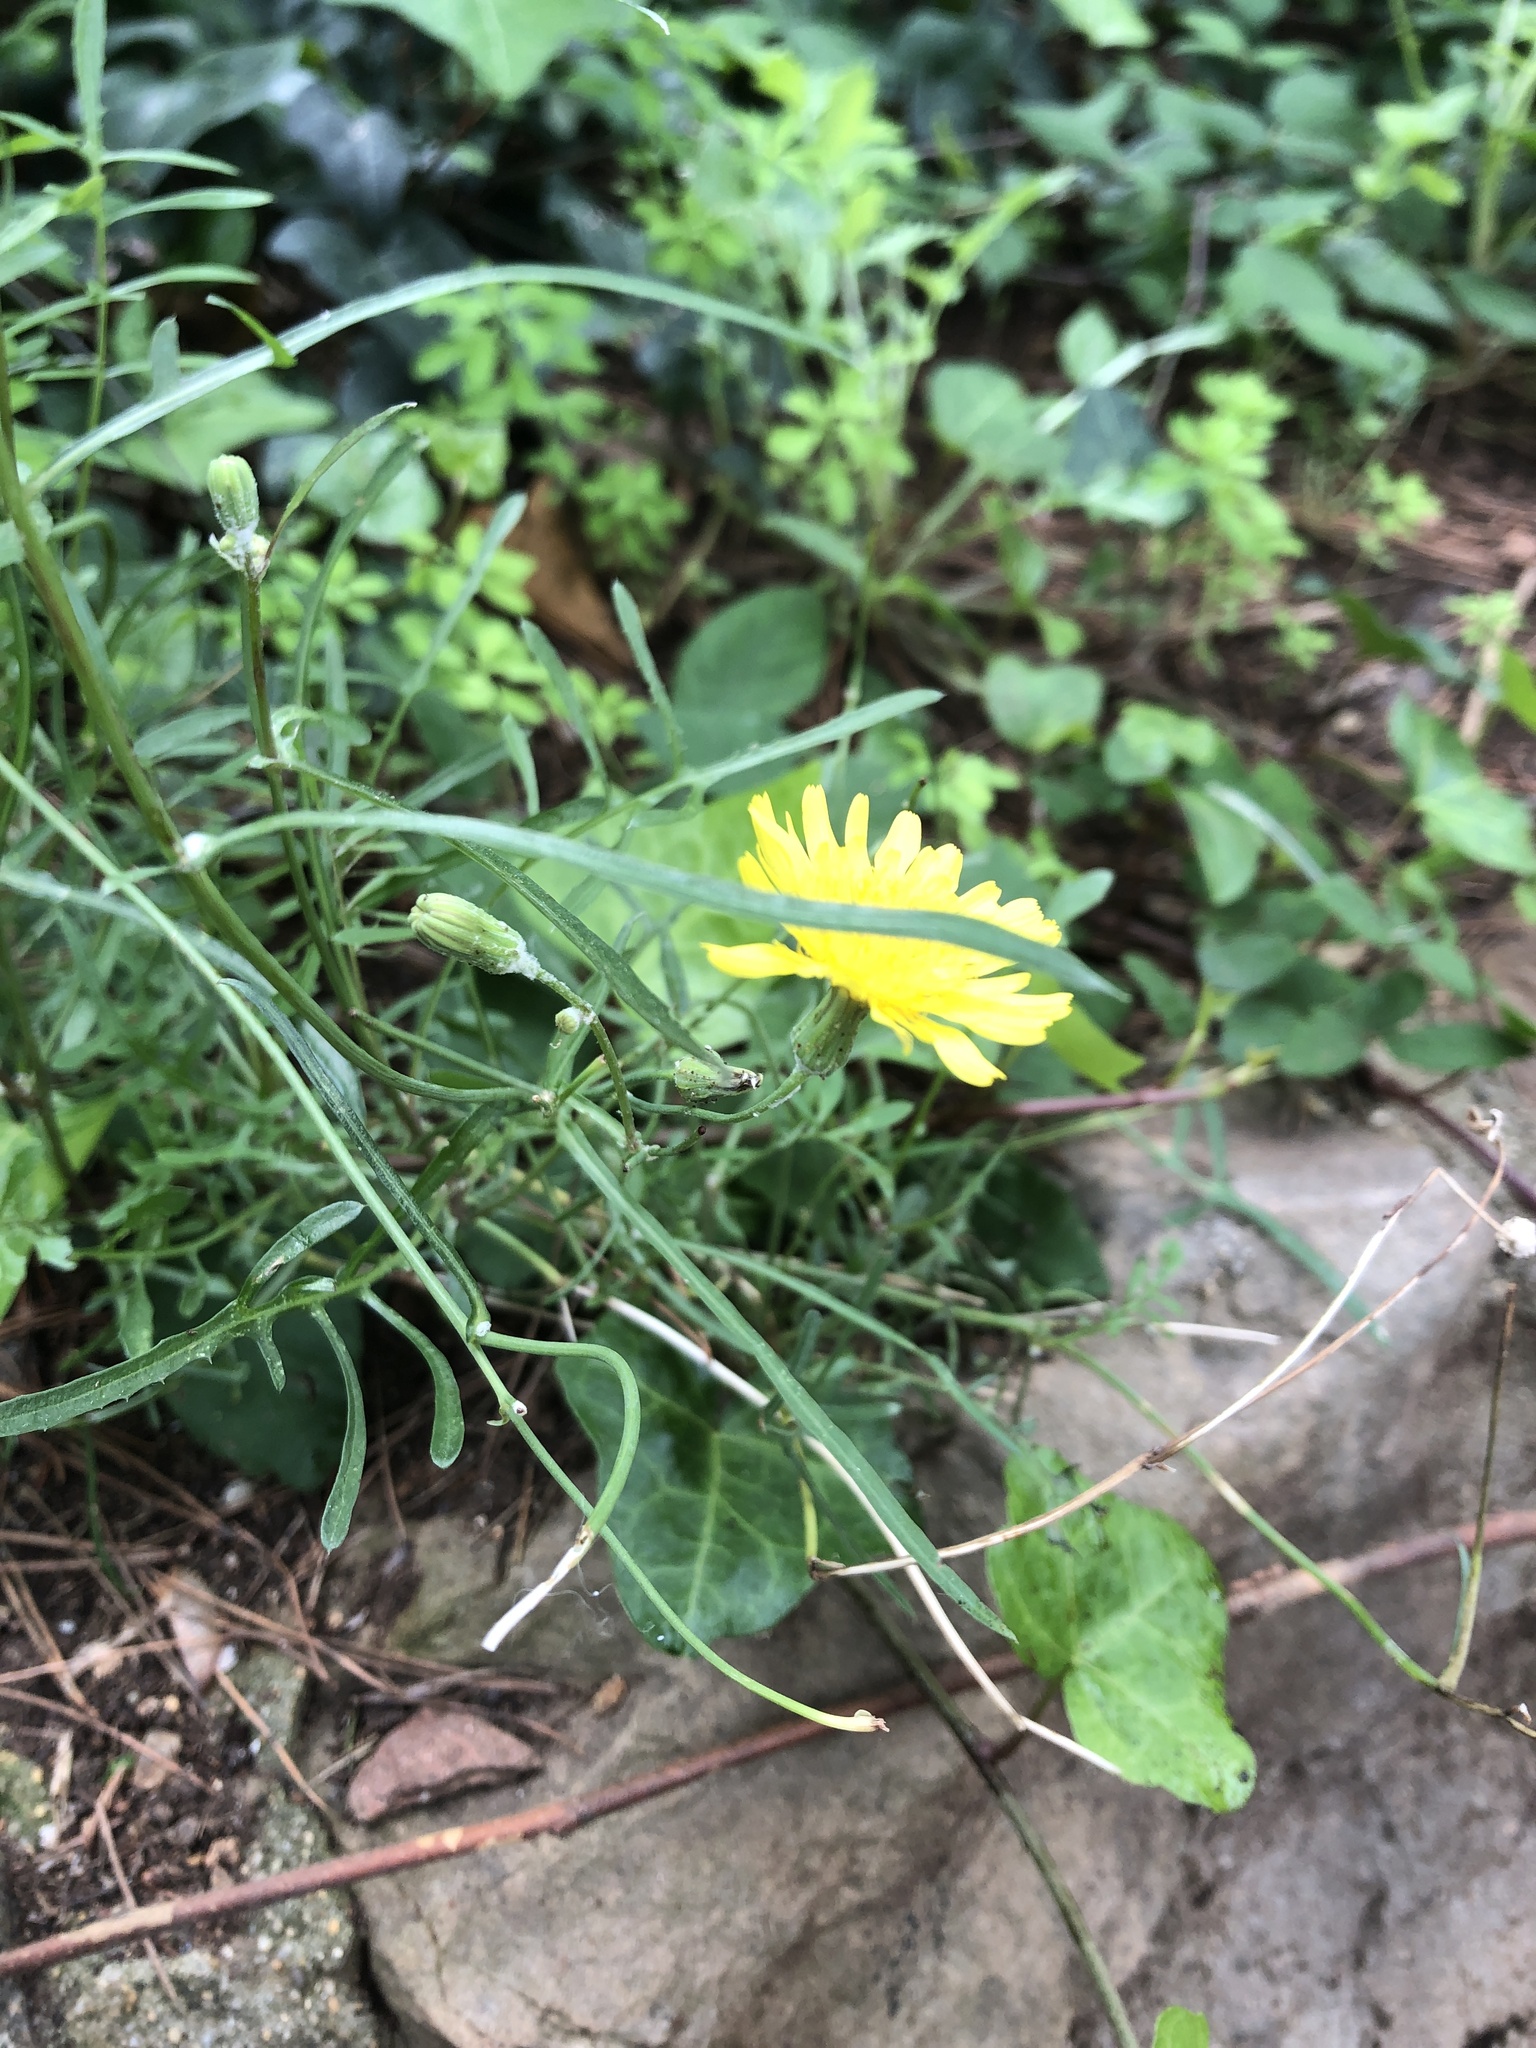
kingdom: Plantae
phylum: Tracheophyta
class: Magnoliopsida
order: Asterales
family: Asteraceae
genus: Sonchus
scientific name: Sonchus tenerrimus
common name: Clammy sowthistle
